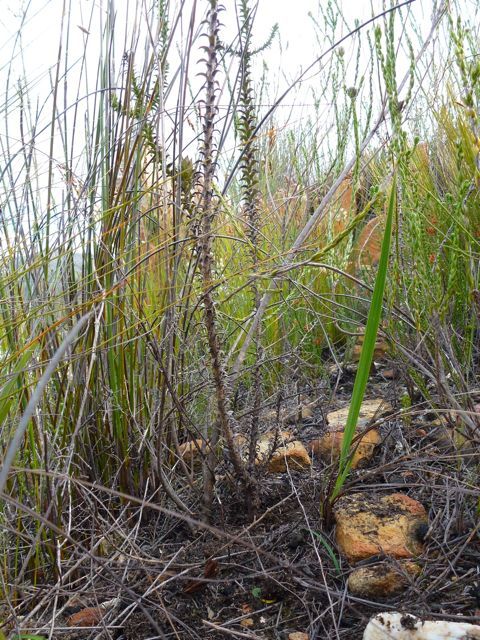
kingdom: Plantae
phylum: Tracheophyta
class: Magnoliopsida
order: Asterales
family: Asteraceae
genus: Oedera
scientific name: Oedera imbricata
